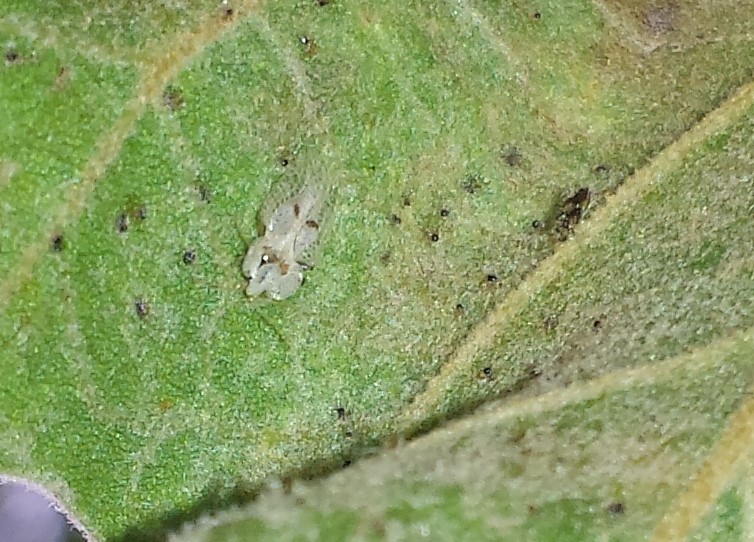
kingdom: Animalia
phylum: Arthropoda
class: Insecta
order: Hemiptera
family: Tingidae
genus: Corythucha
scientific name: Corythucha ciliata
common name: Sycamore lace bug
